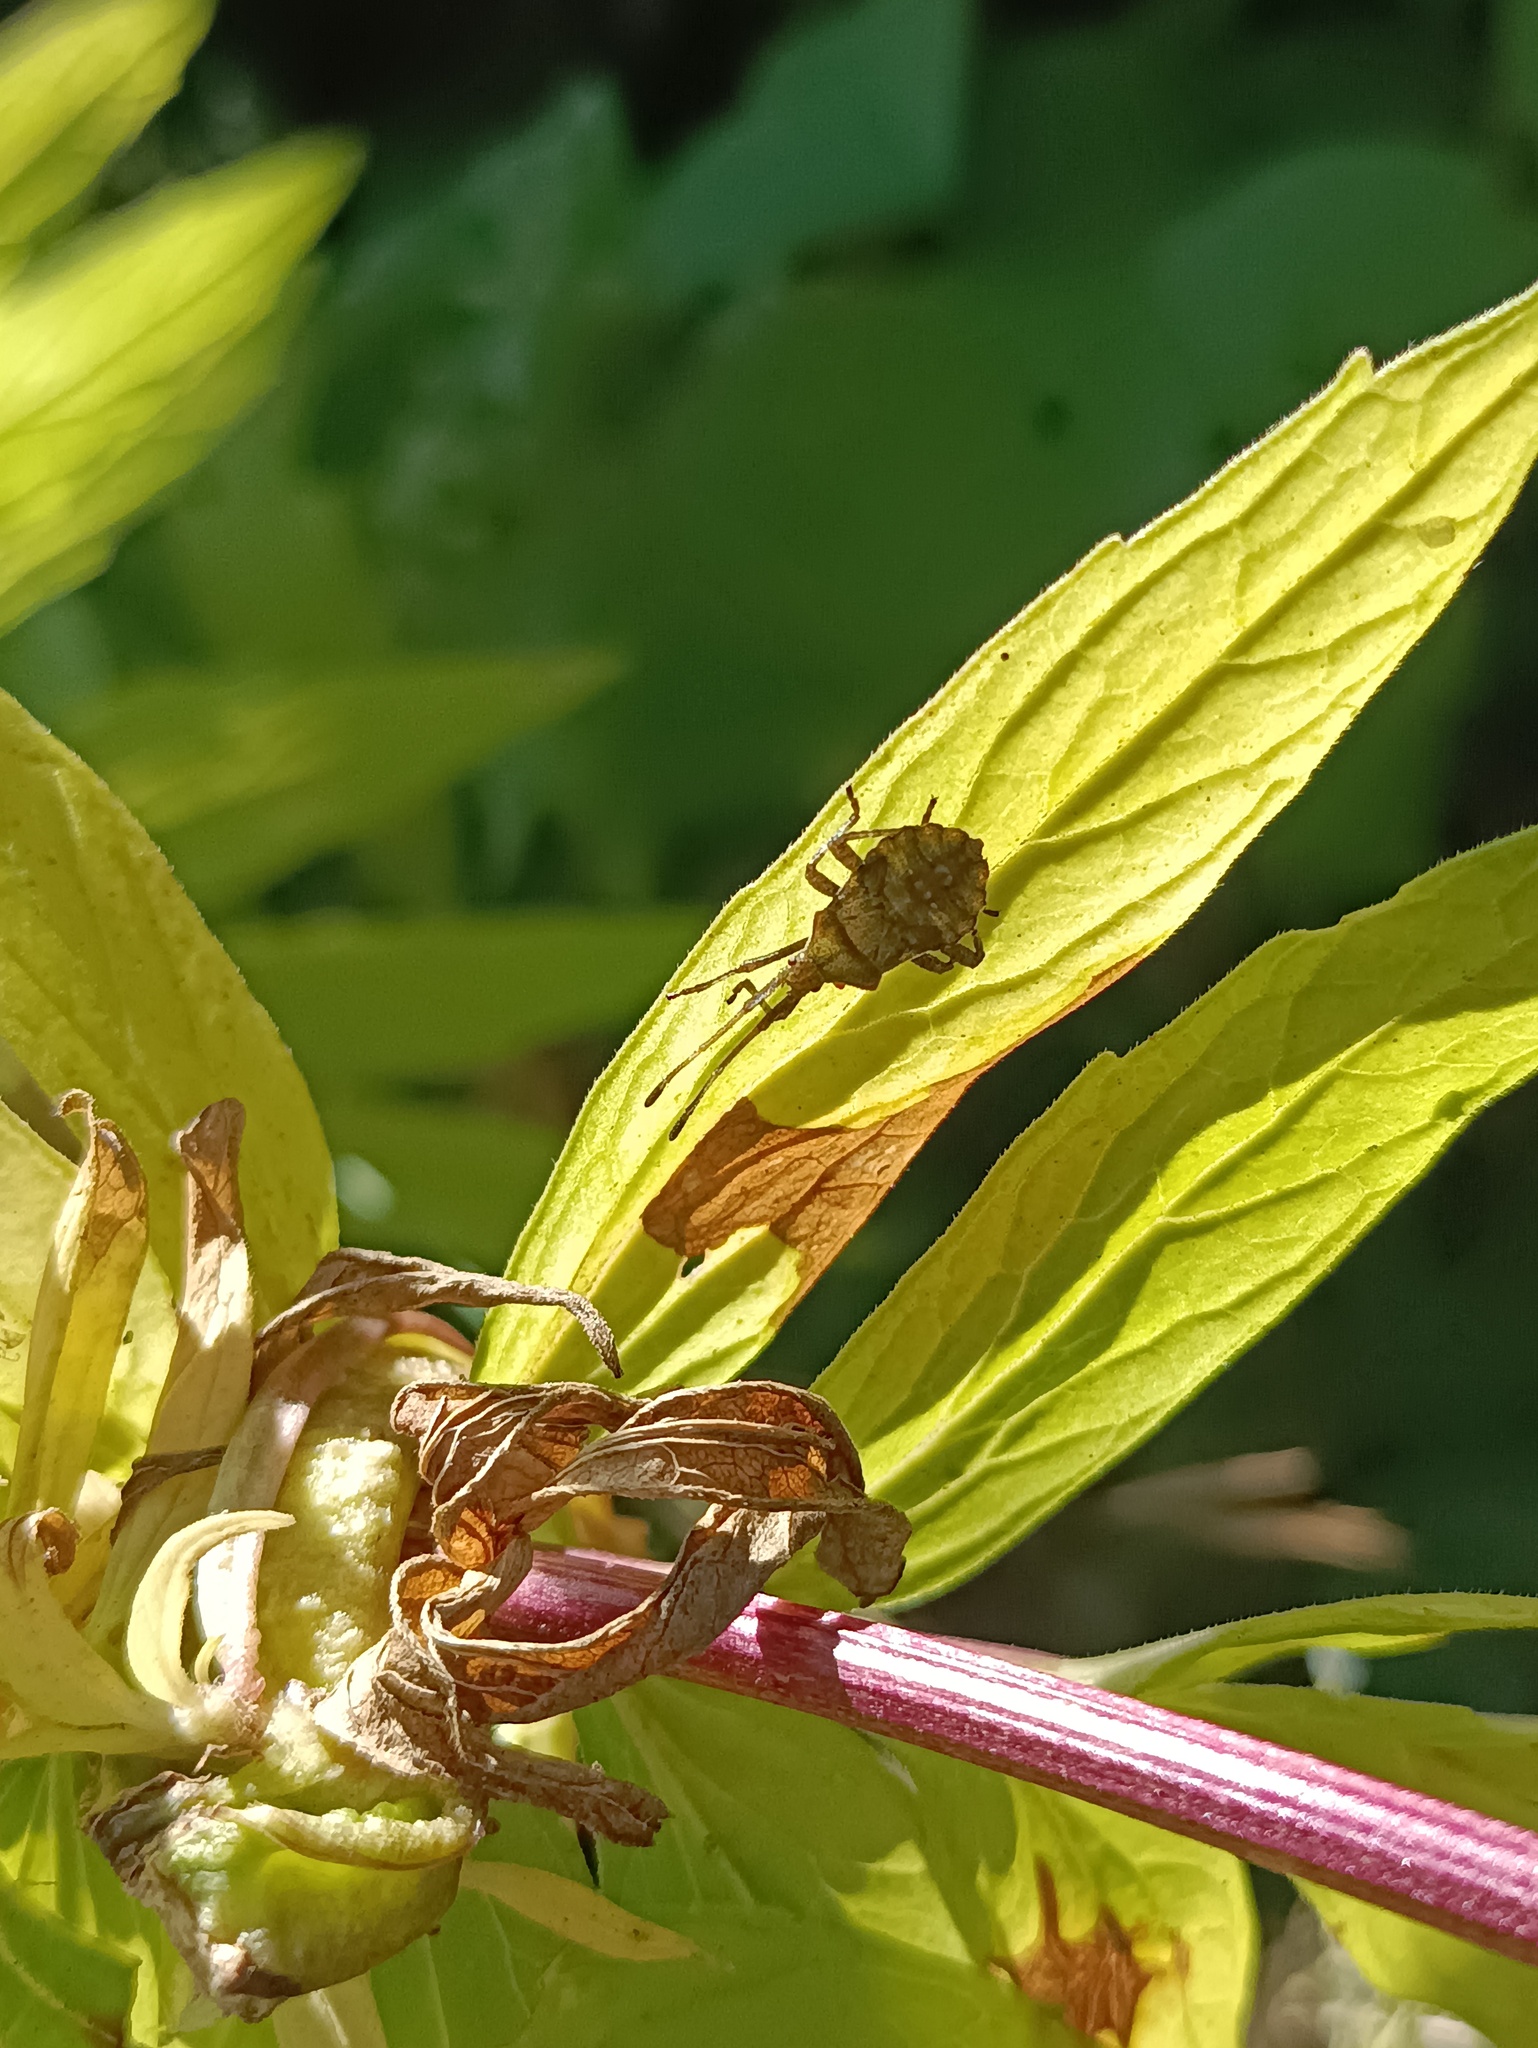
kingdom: Animalia
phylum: Arthropoda
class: Insecta
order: Hemiptera
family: Coreidae
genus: Coreus
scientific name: Coreus marginatus
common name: Dock bug
